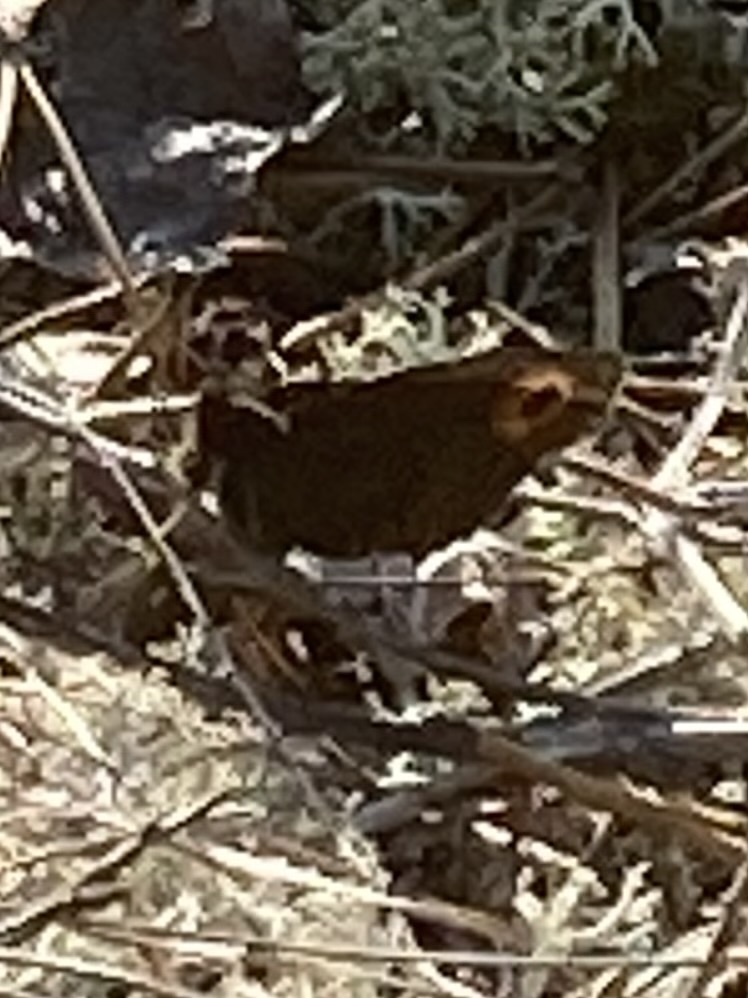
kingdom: Animalia
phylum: Arthropoda
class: Insecta
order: Lepidoptera
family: Nymphalidae
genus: Cercyonis
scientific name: Cercyonis pegala
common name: Common wood-nymph
